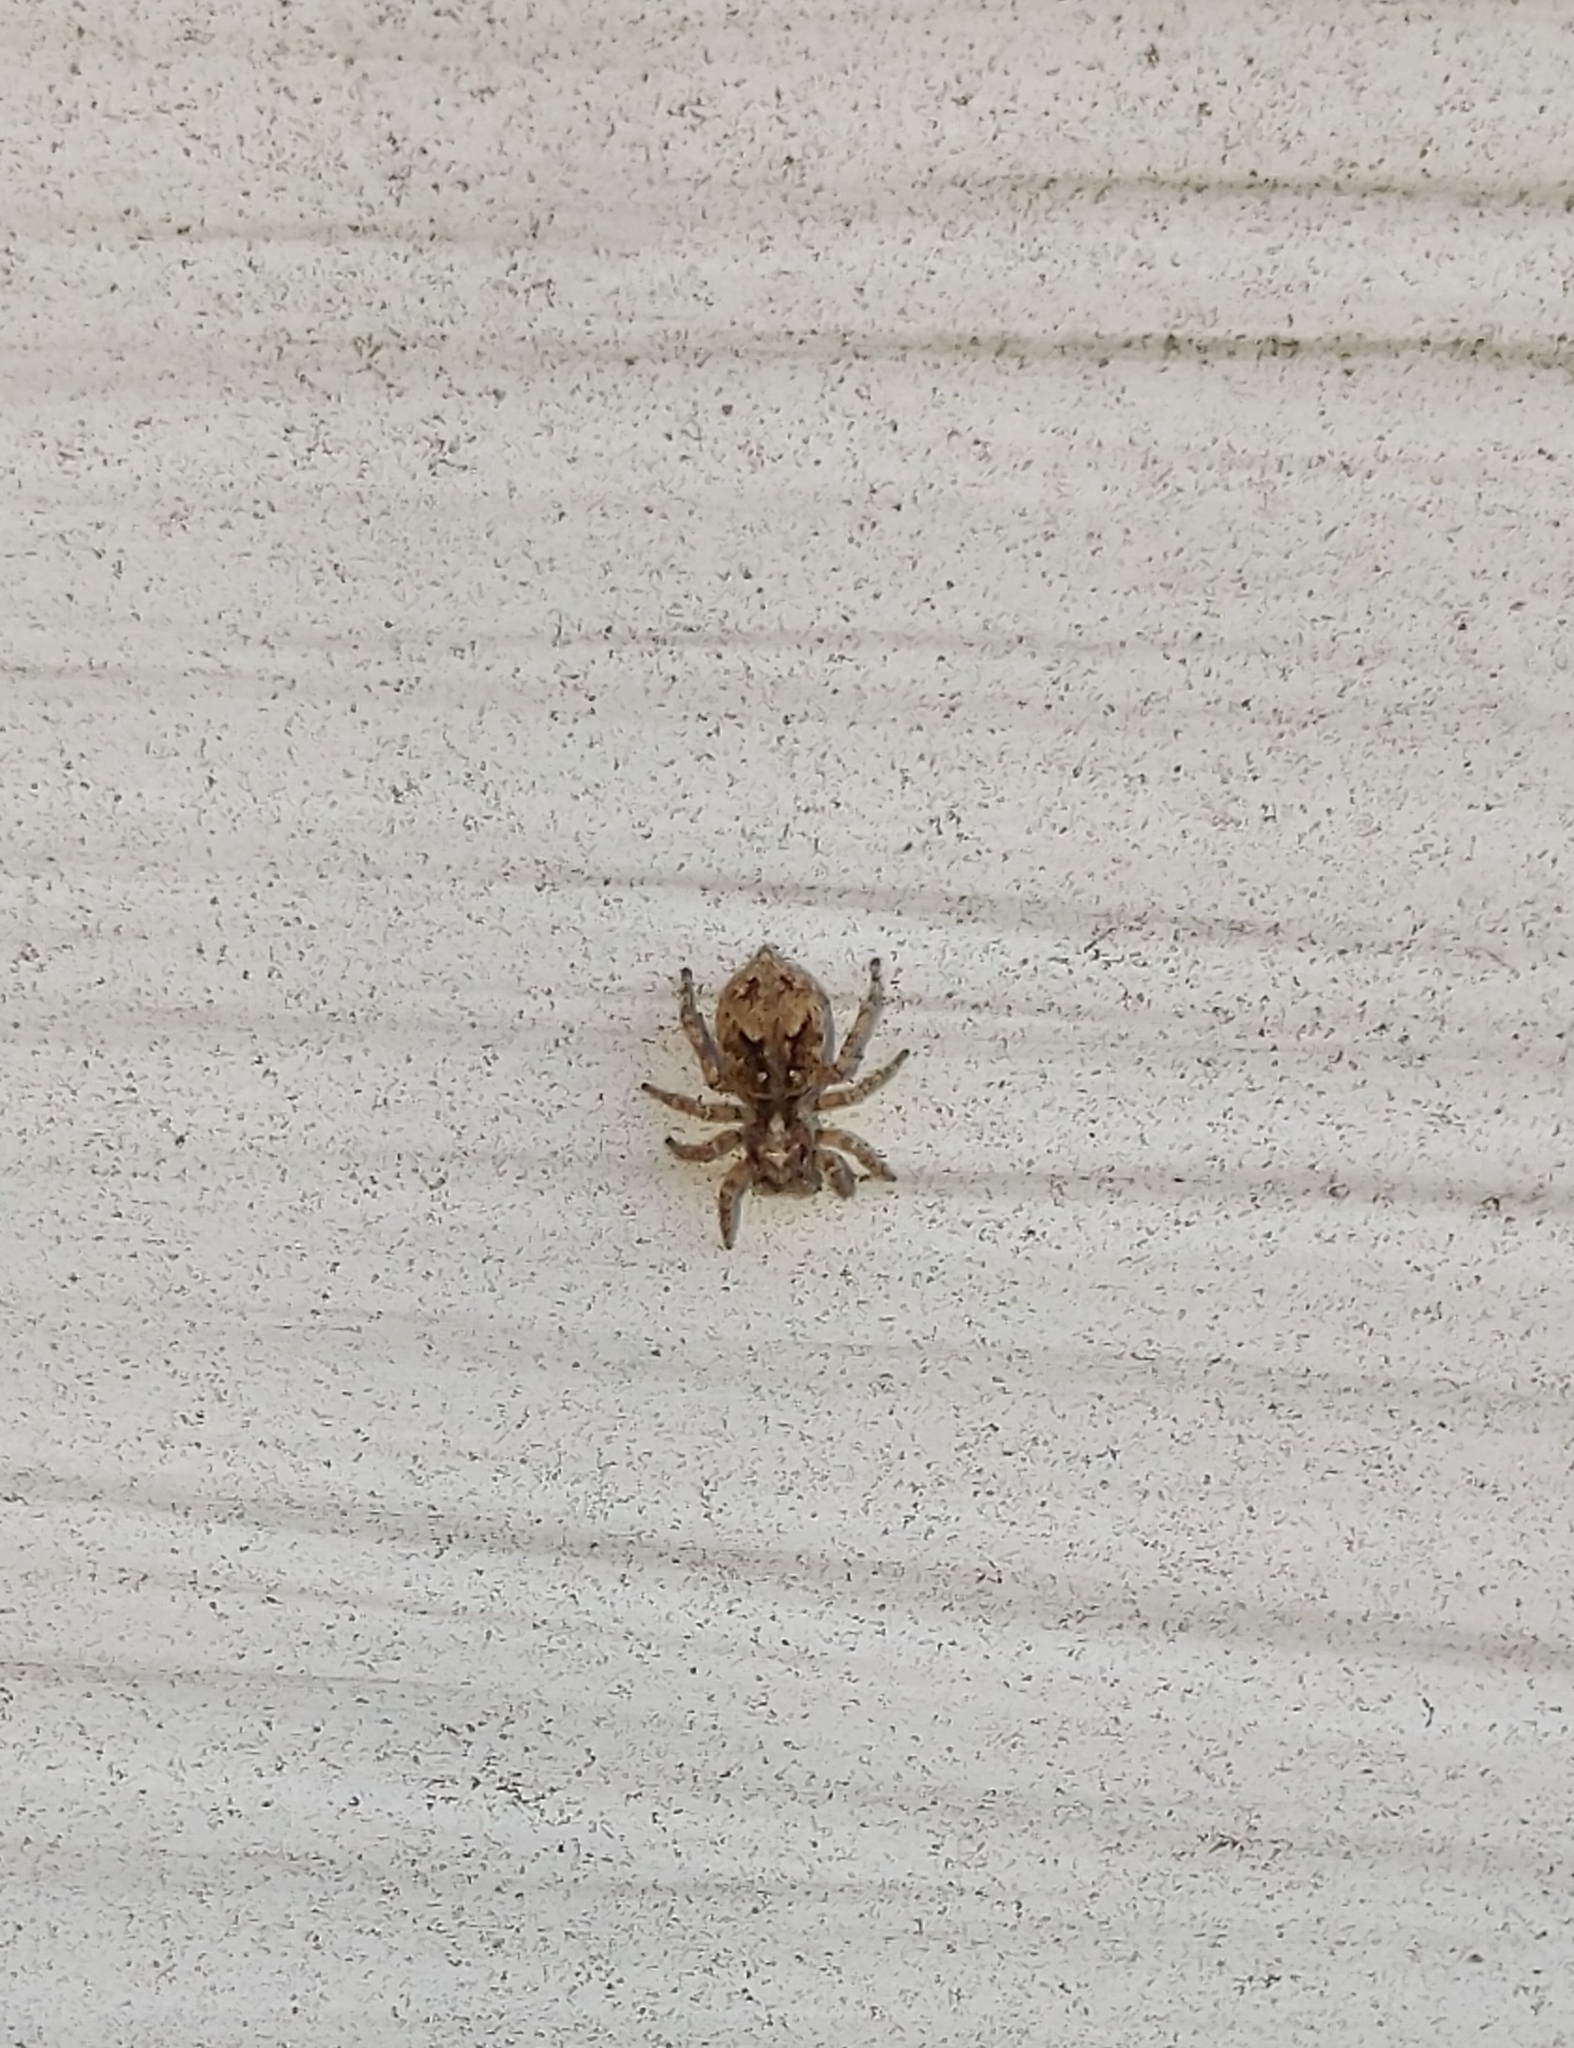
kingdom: Animalia
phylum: Arthropoda
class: Arachnida
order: Araneae
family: Salticidae
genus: Attulus
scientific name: Attulus fasciger
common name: Asiatic wall jumping spider
